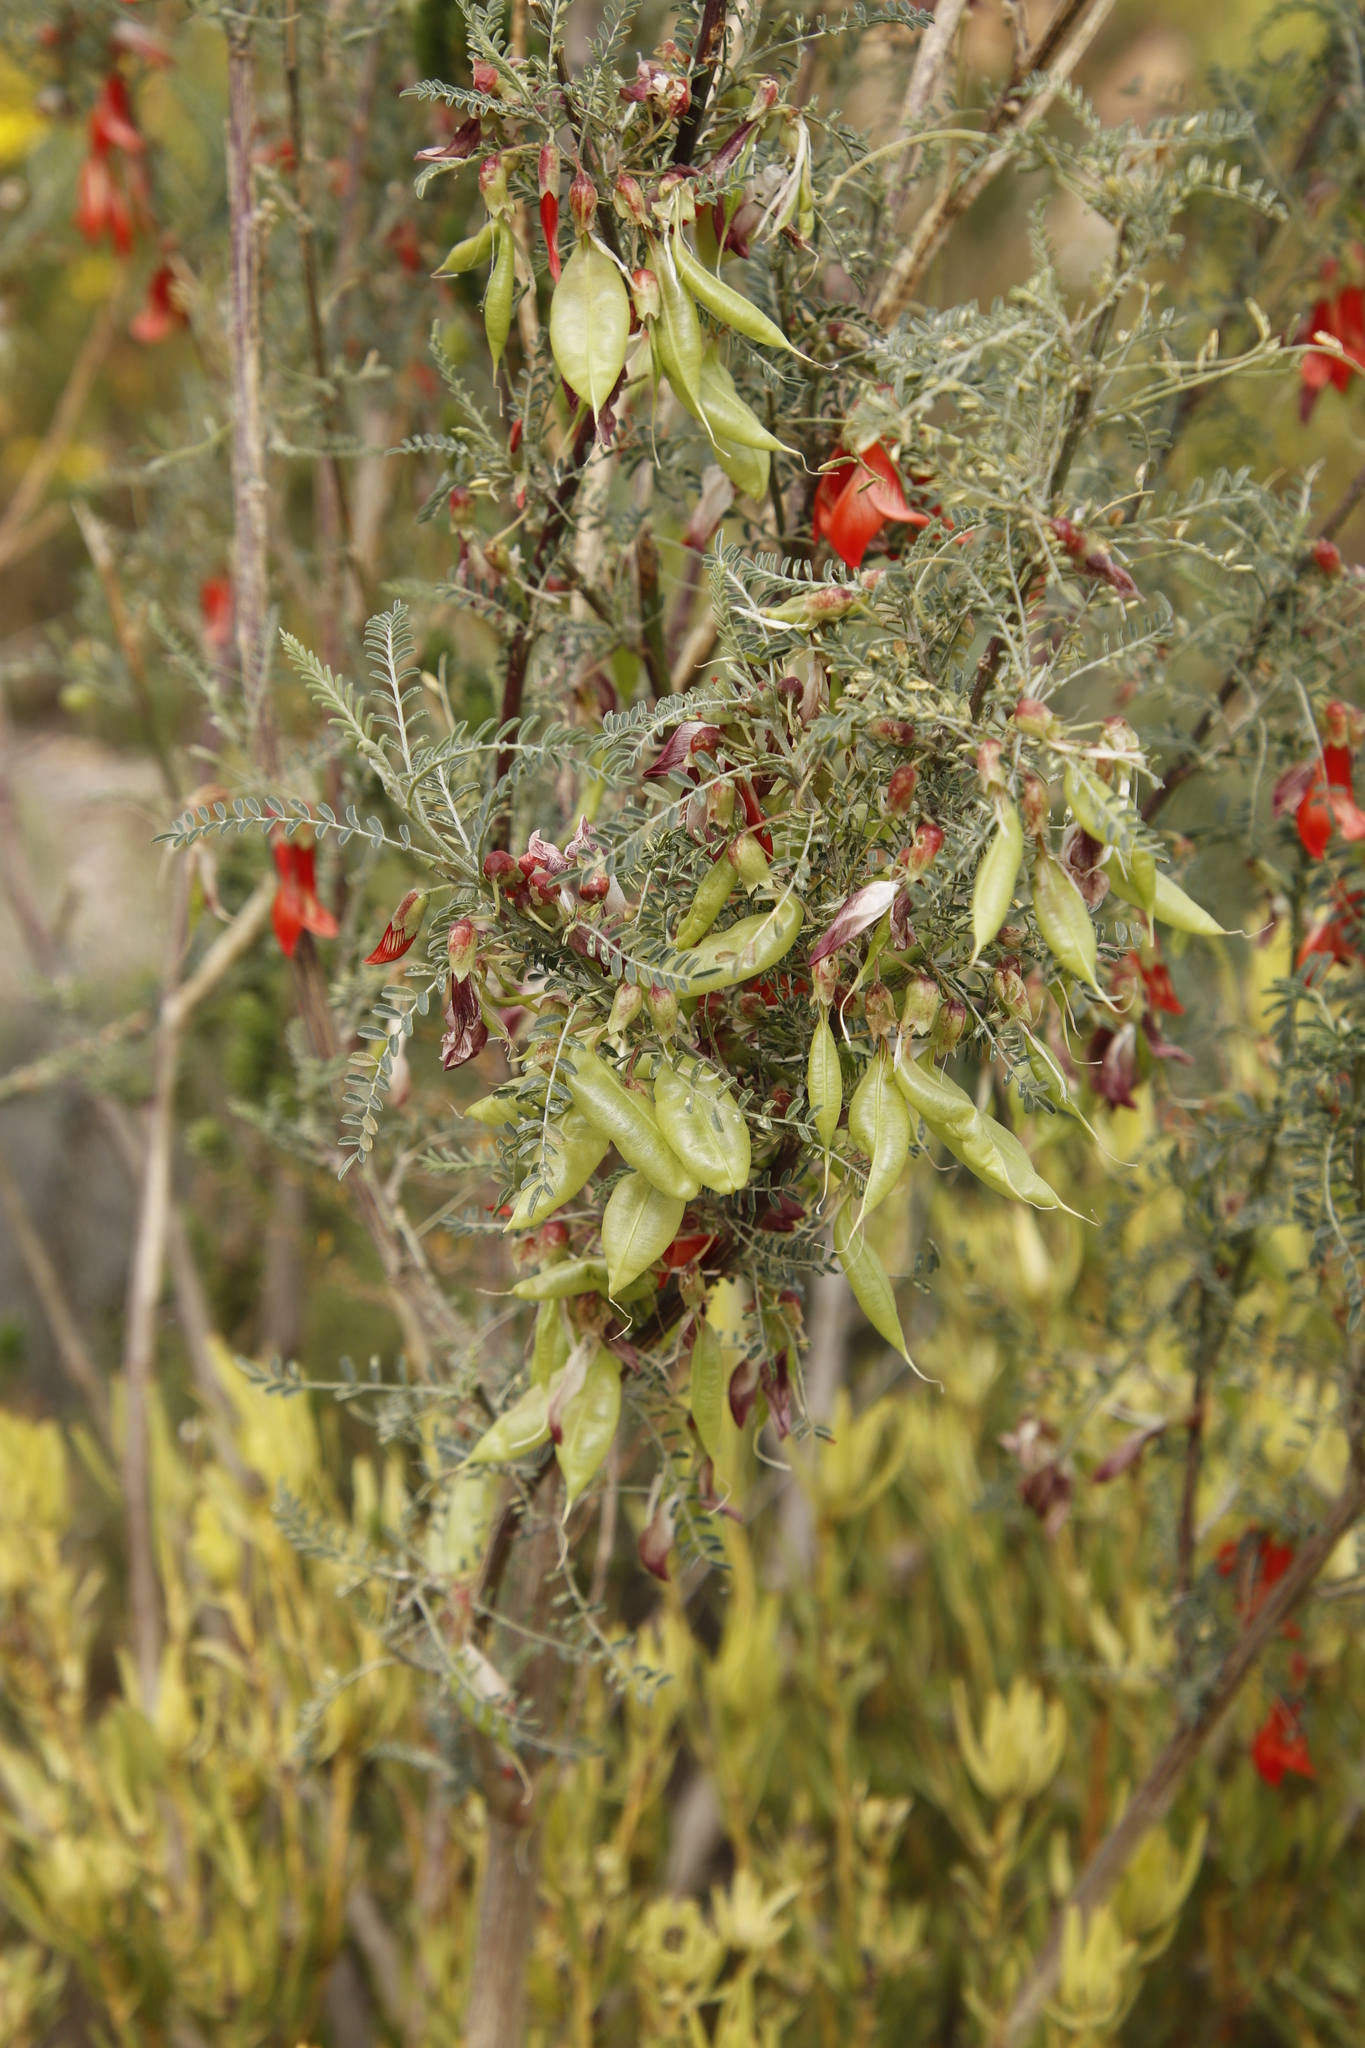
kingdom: Plantae
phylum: Tracheophyta
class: Magnoliopsida
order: Fabales
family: Fabaceae
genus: Lessertia
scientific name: Lessertia frutescens
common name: Balloon-pea
